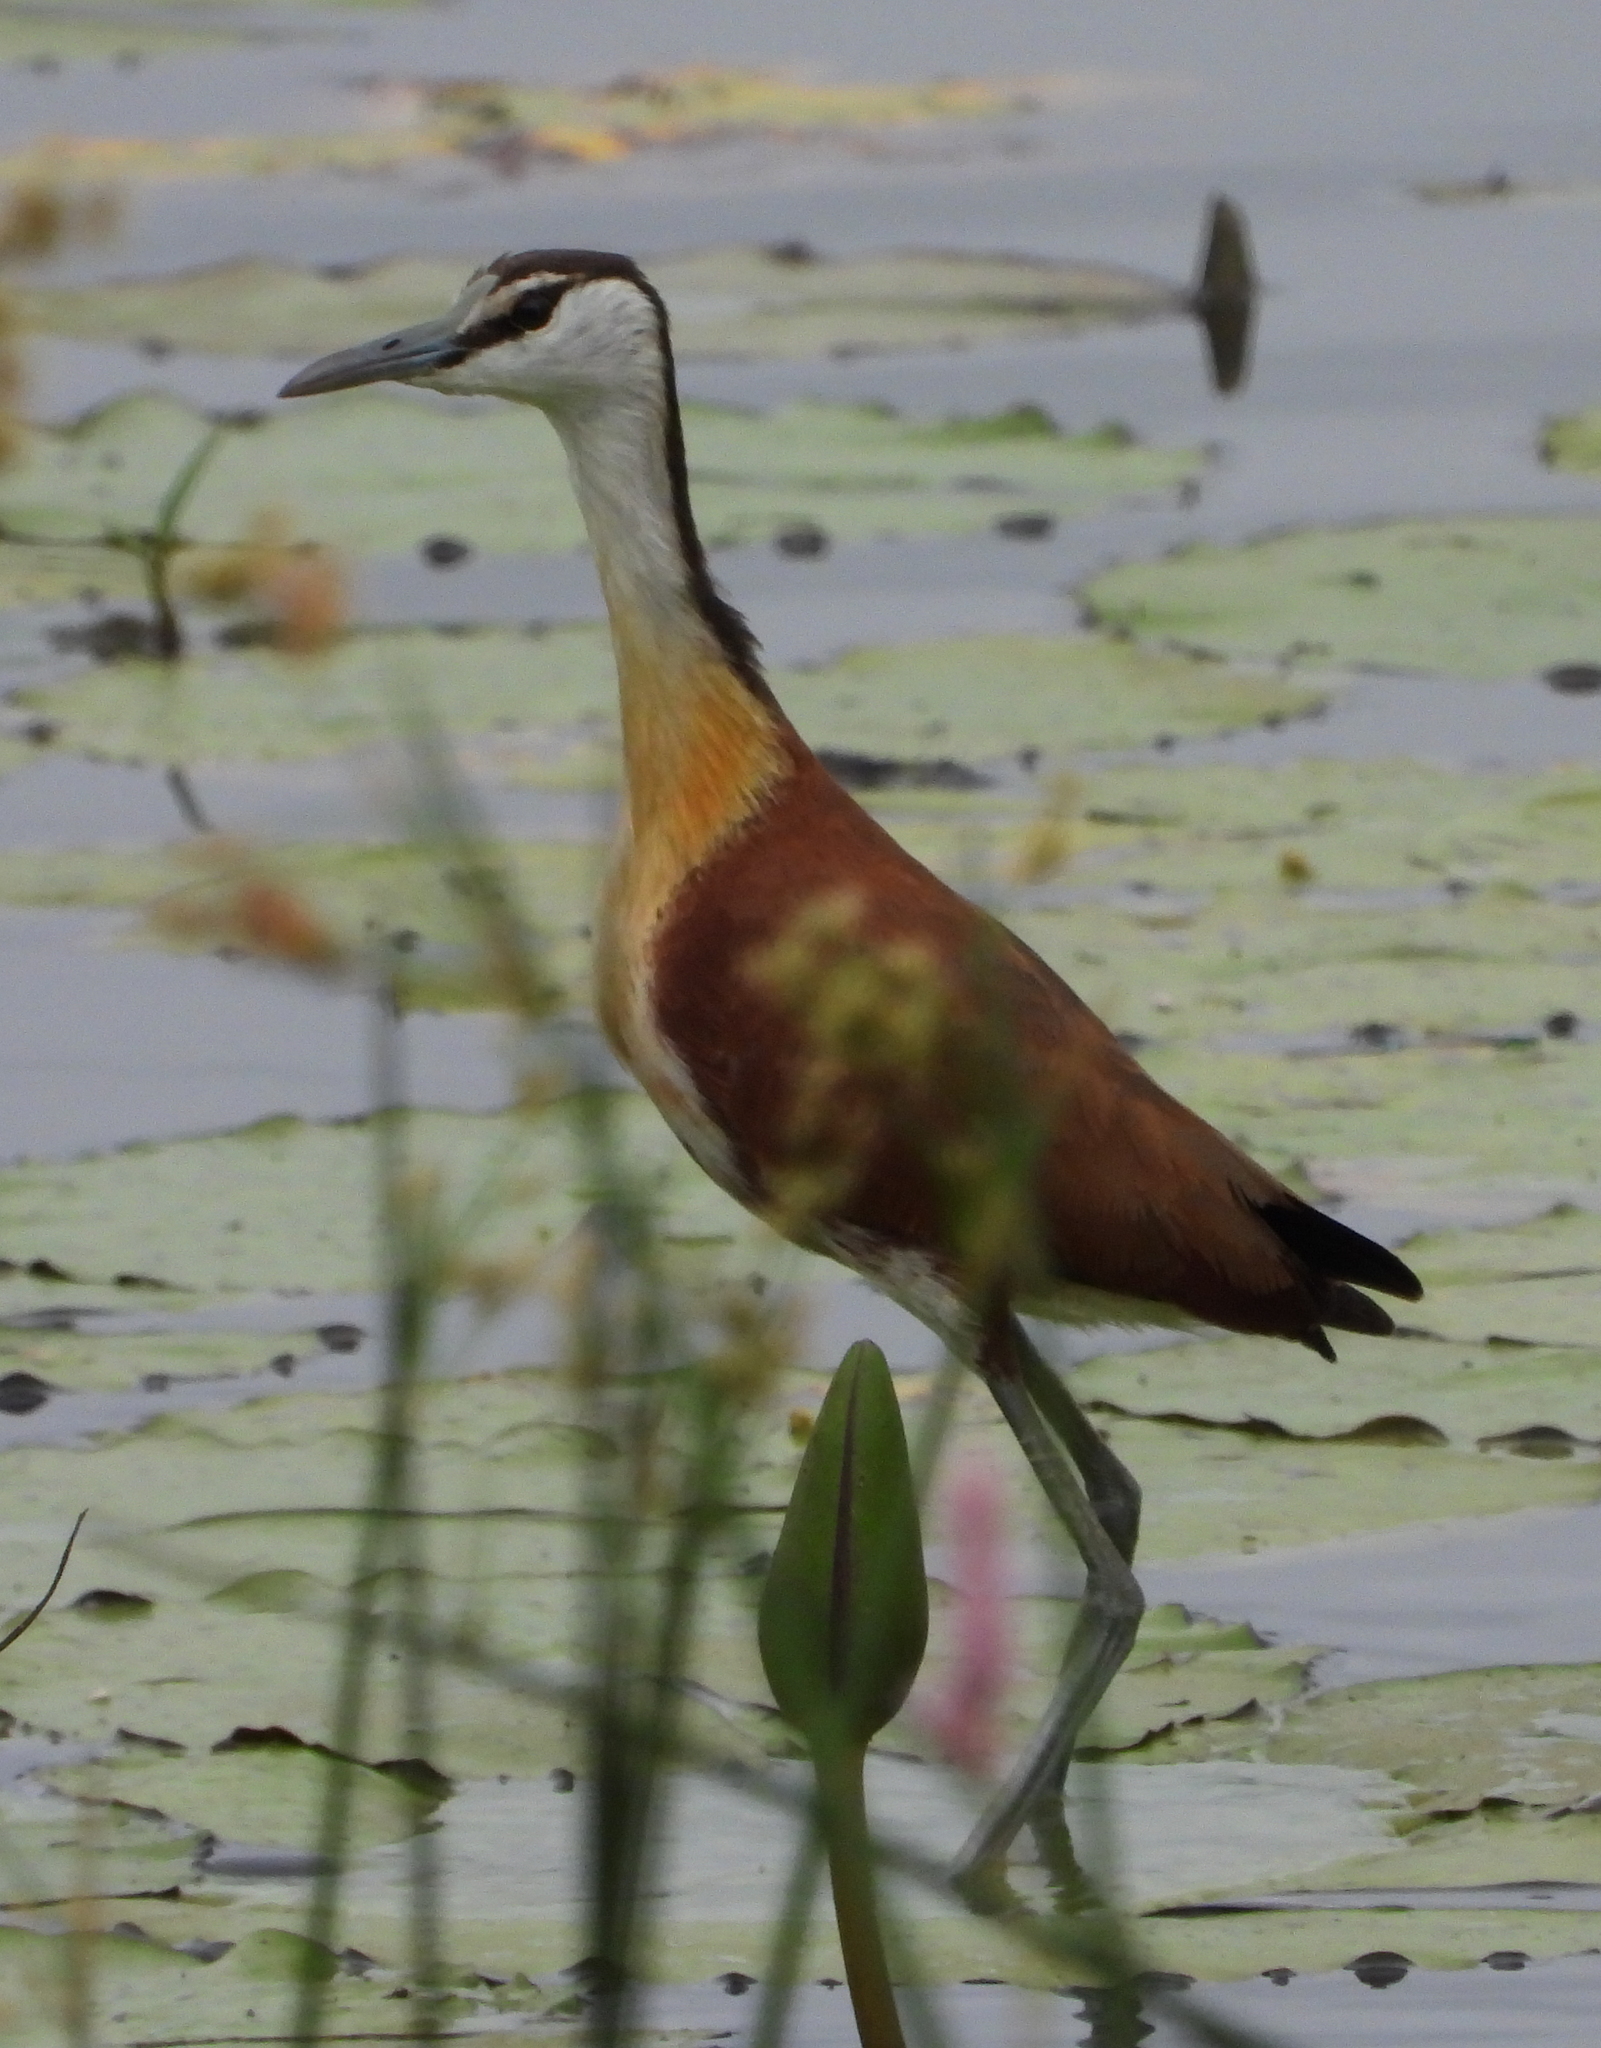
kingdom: Animalia
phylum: Chordata
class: Aves
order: Charadriiformes
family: Jacanidae
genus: Actophilornis
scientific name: Actophilornis africanus
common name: African jacana
